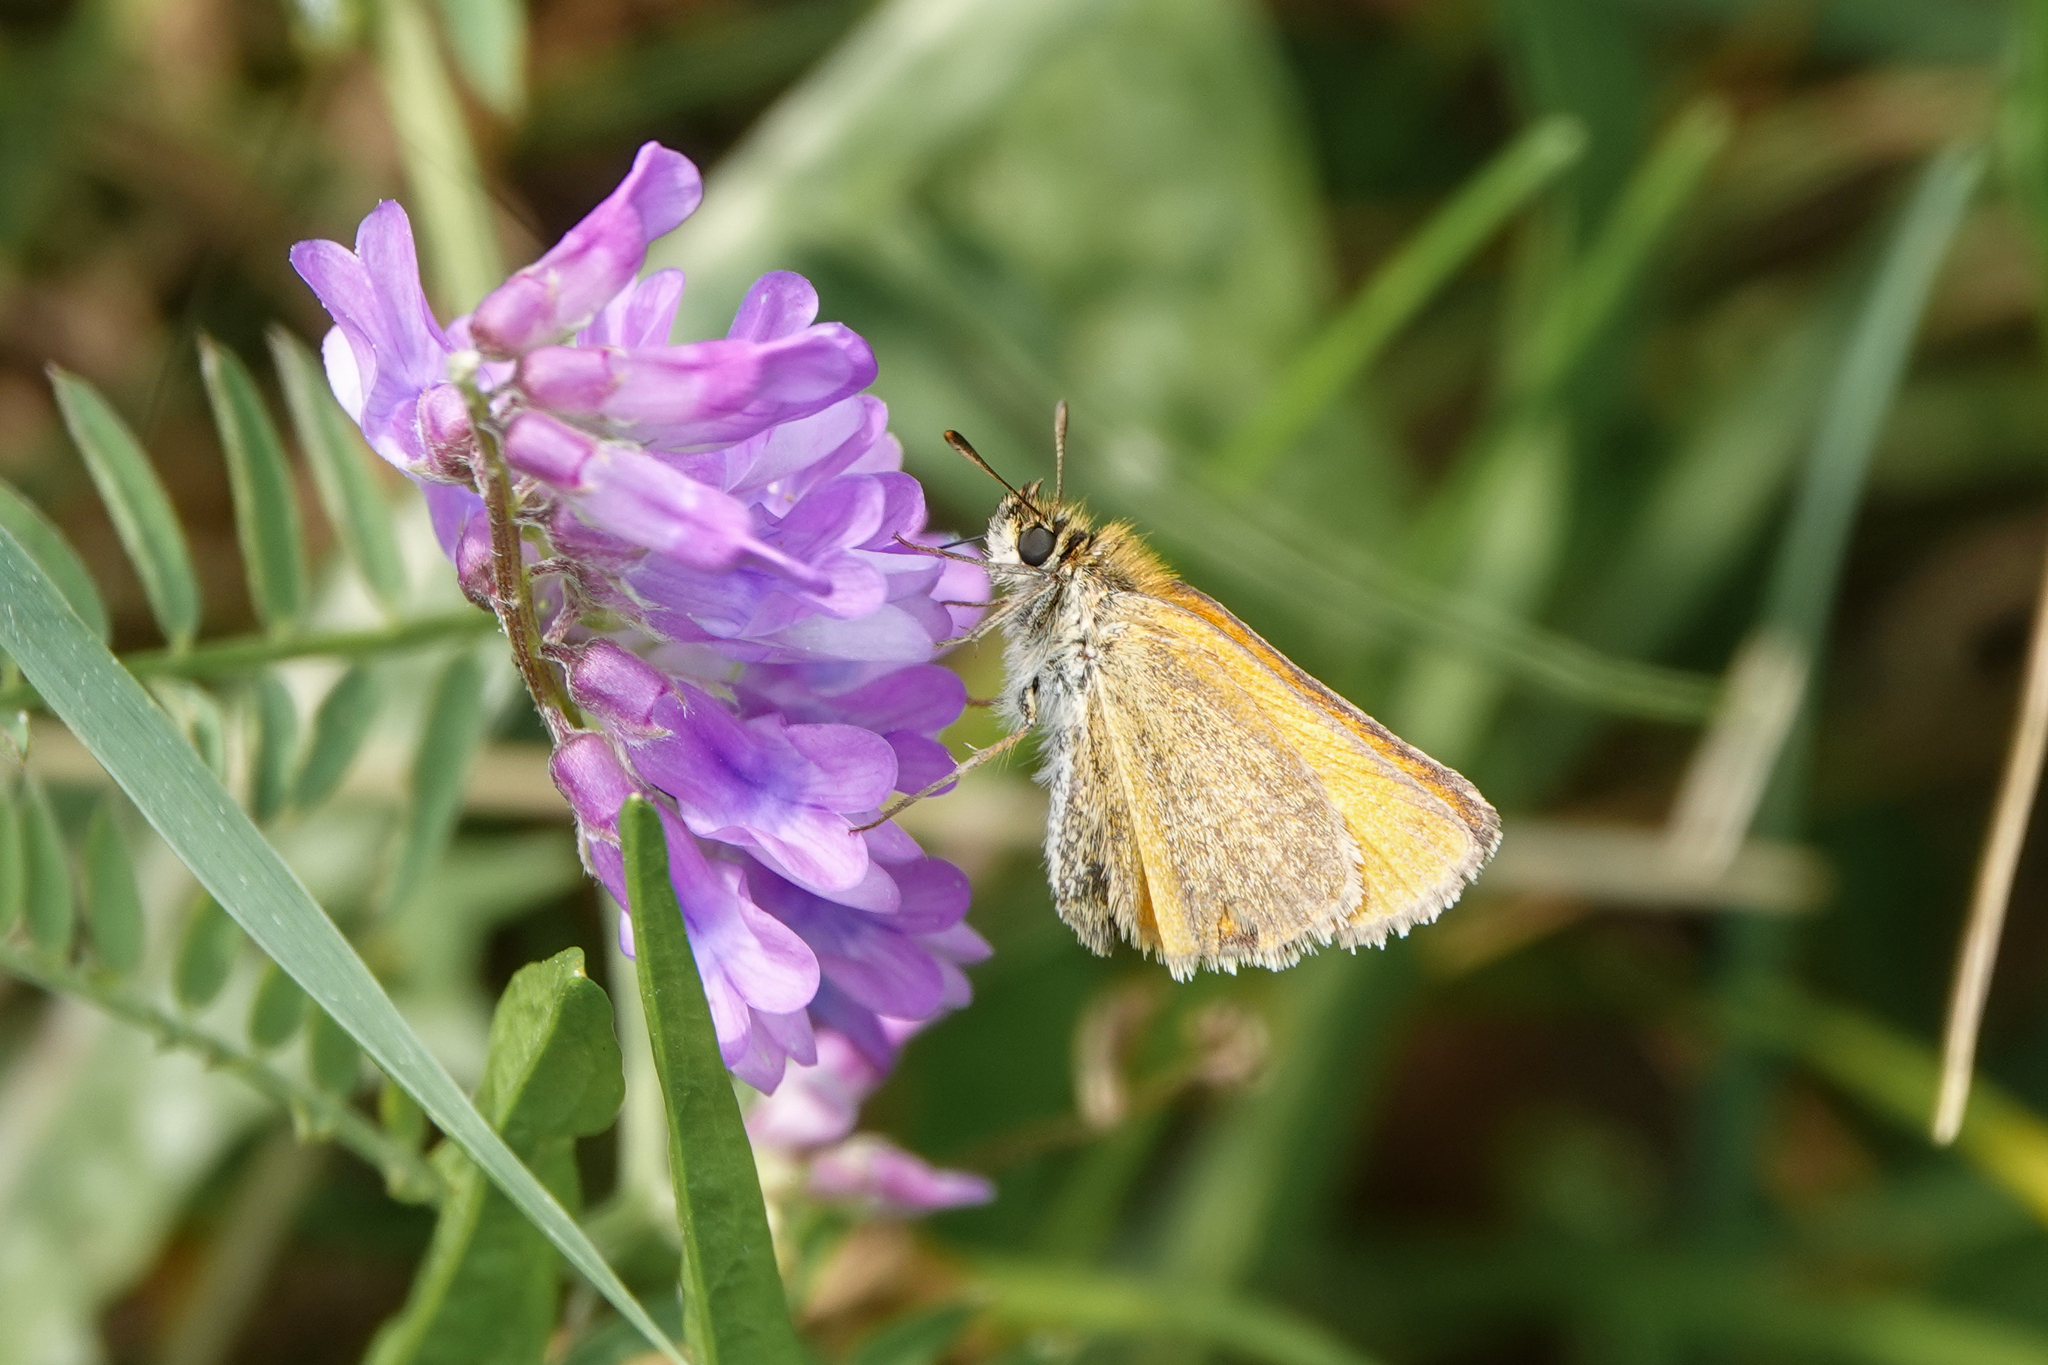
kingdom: Animalia
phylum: Arthropoda
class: Insecta
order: Lepidoptera
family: Hesperiidae
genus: Thymelicus
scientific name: Thymelicus lineola
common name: Essex skipper
